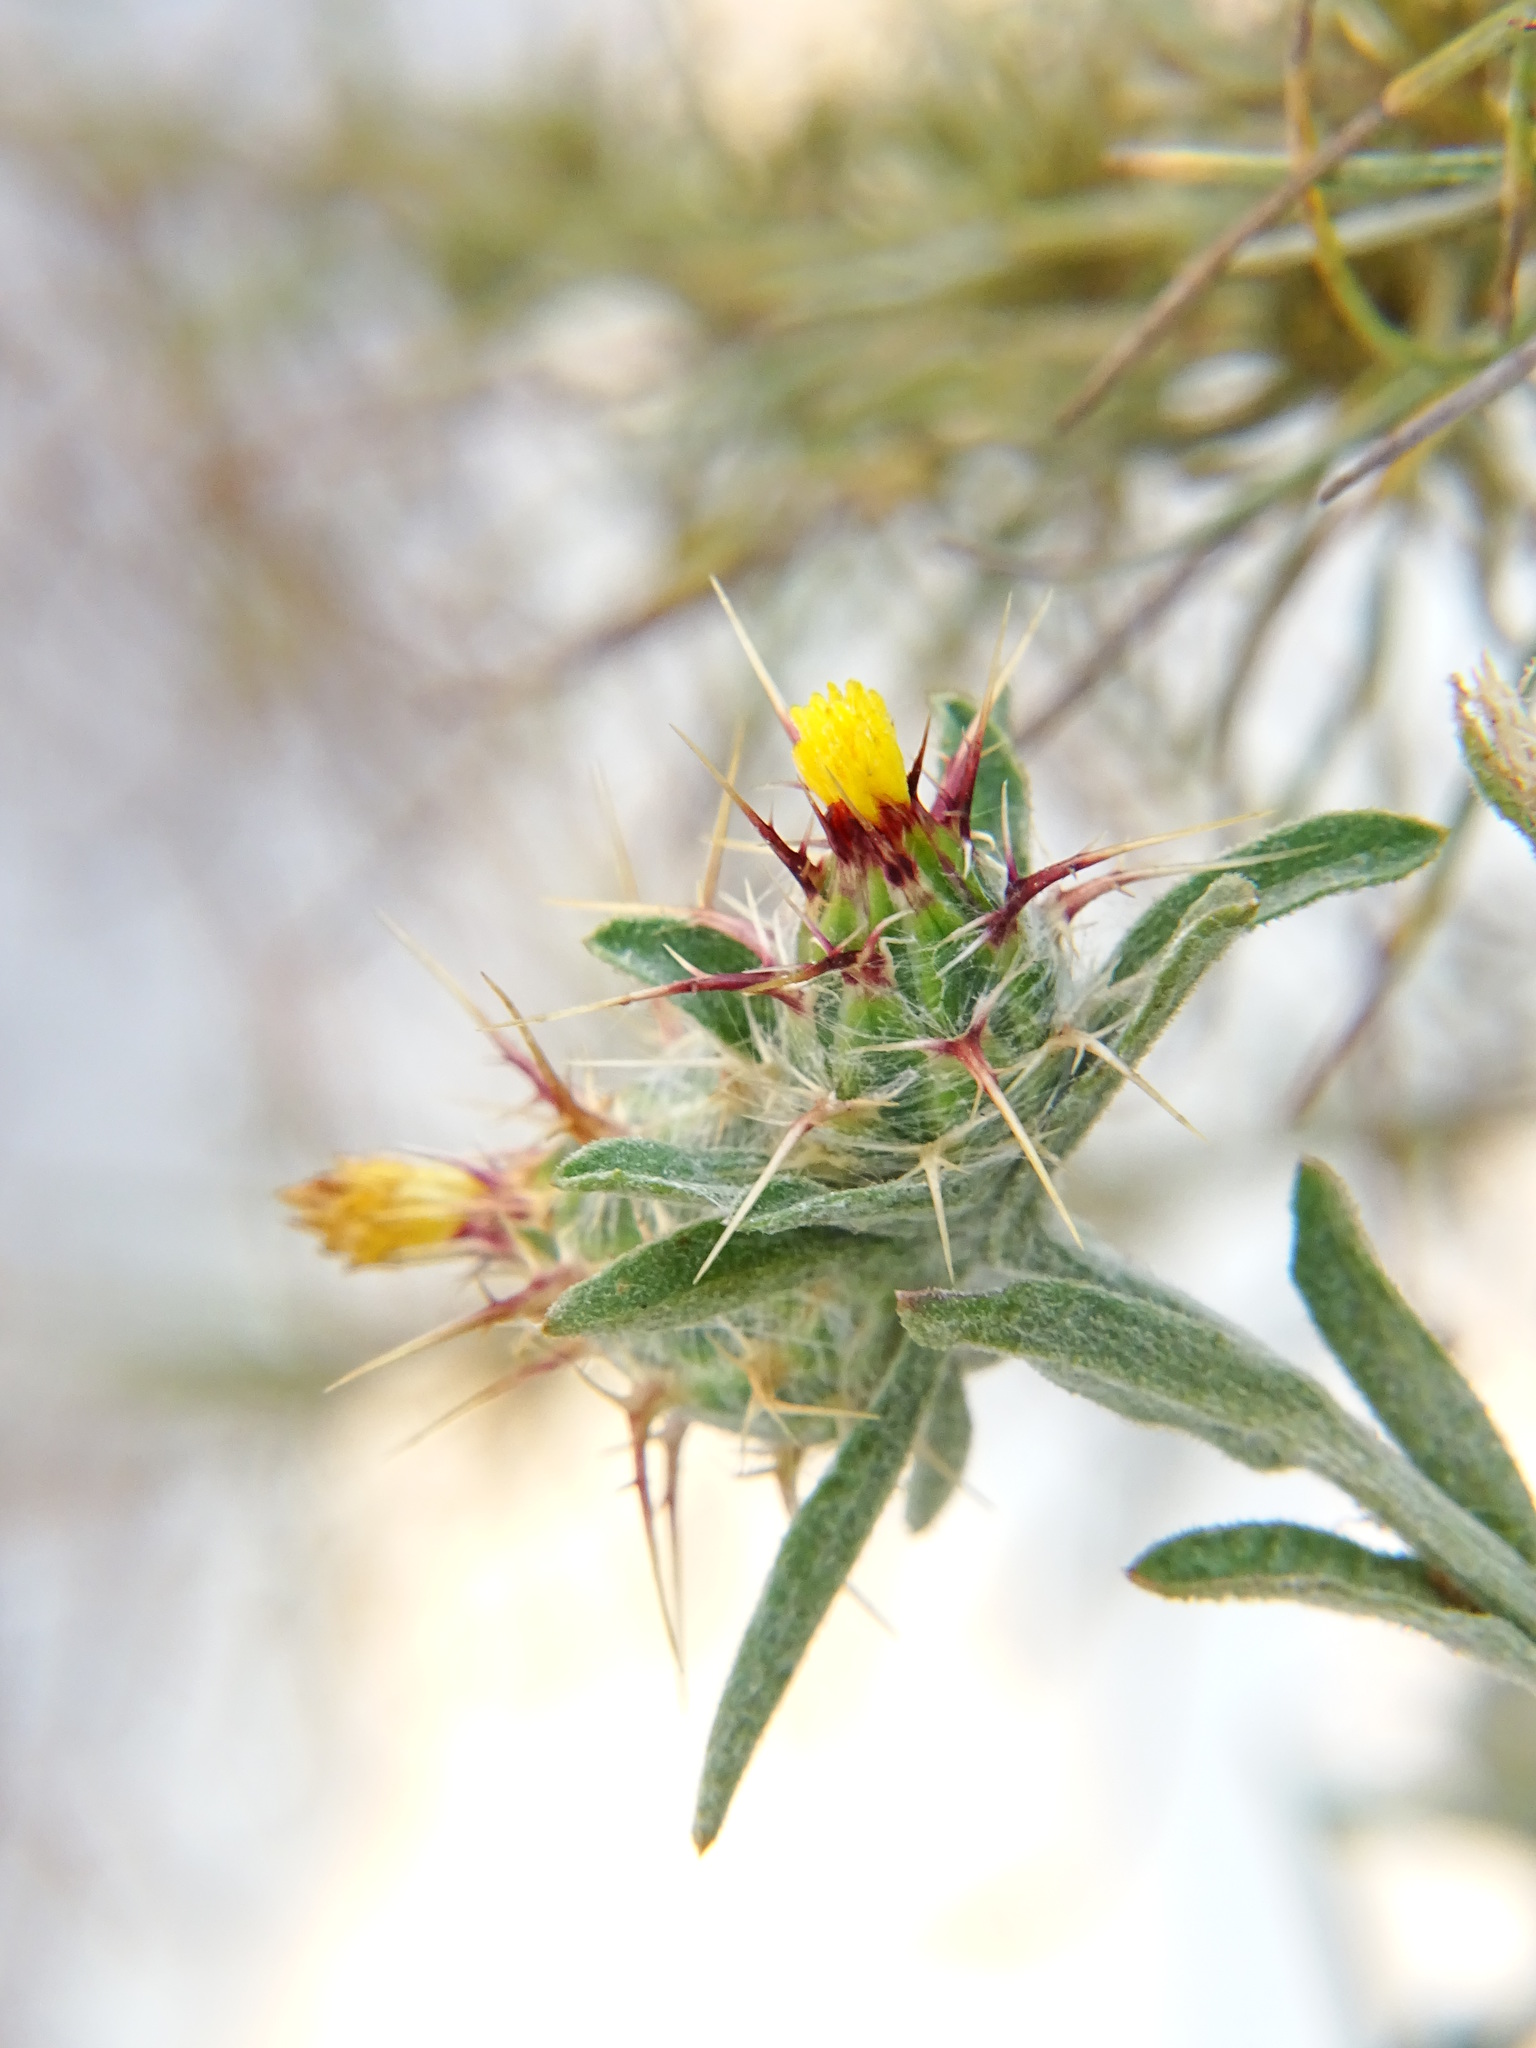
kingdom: Plantae
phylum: Tracheophyta
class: Magnoliopsida
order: Asterales
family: Asteraceae
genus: Centaurea
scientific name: Centaurea melitensis
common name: Maltese star-thistle
